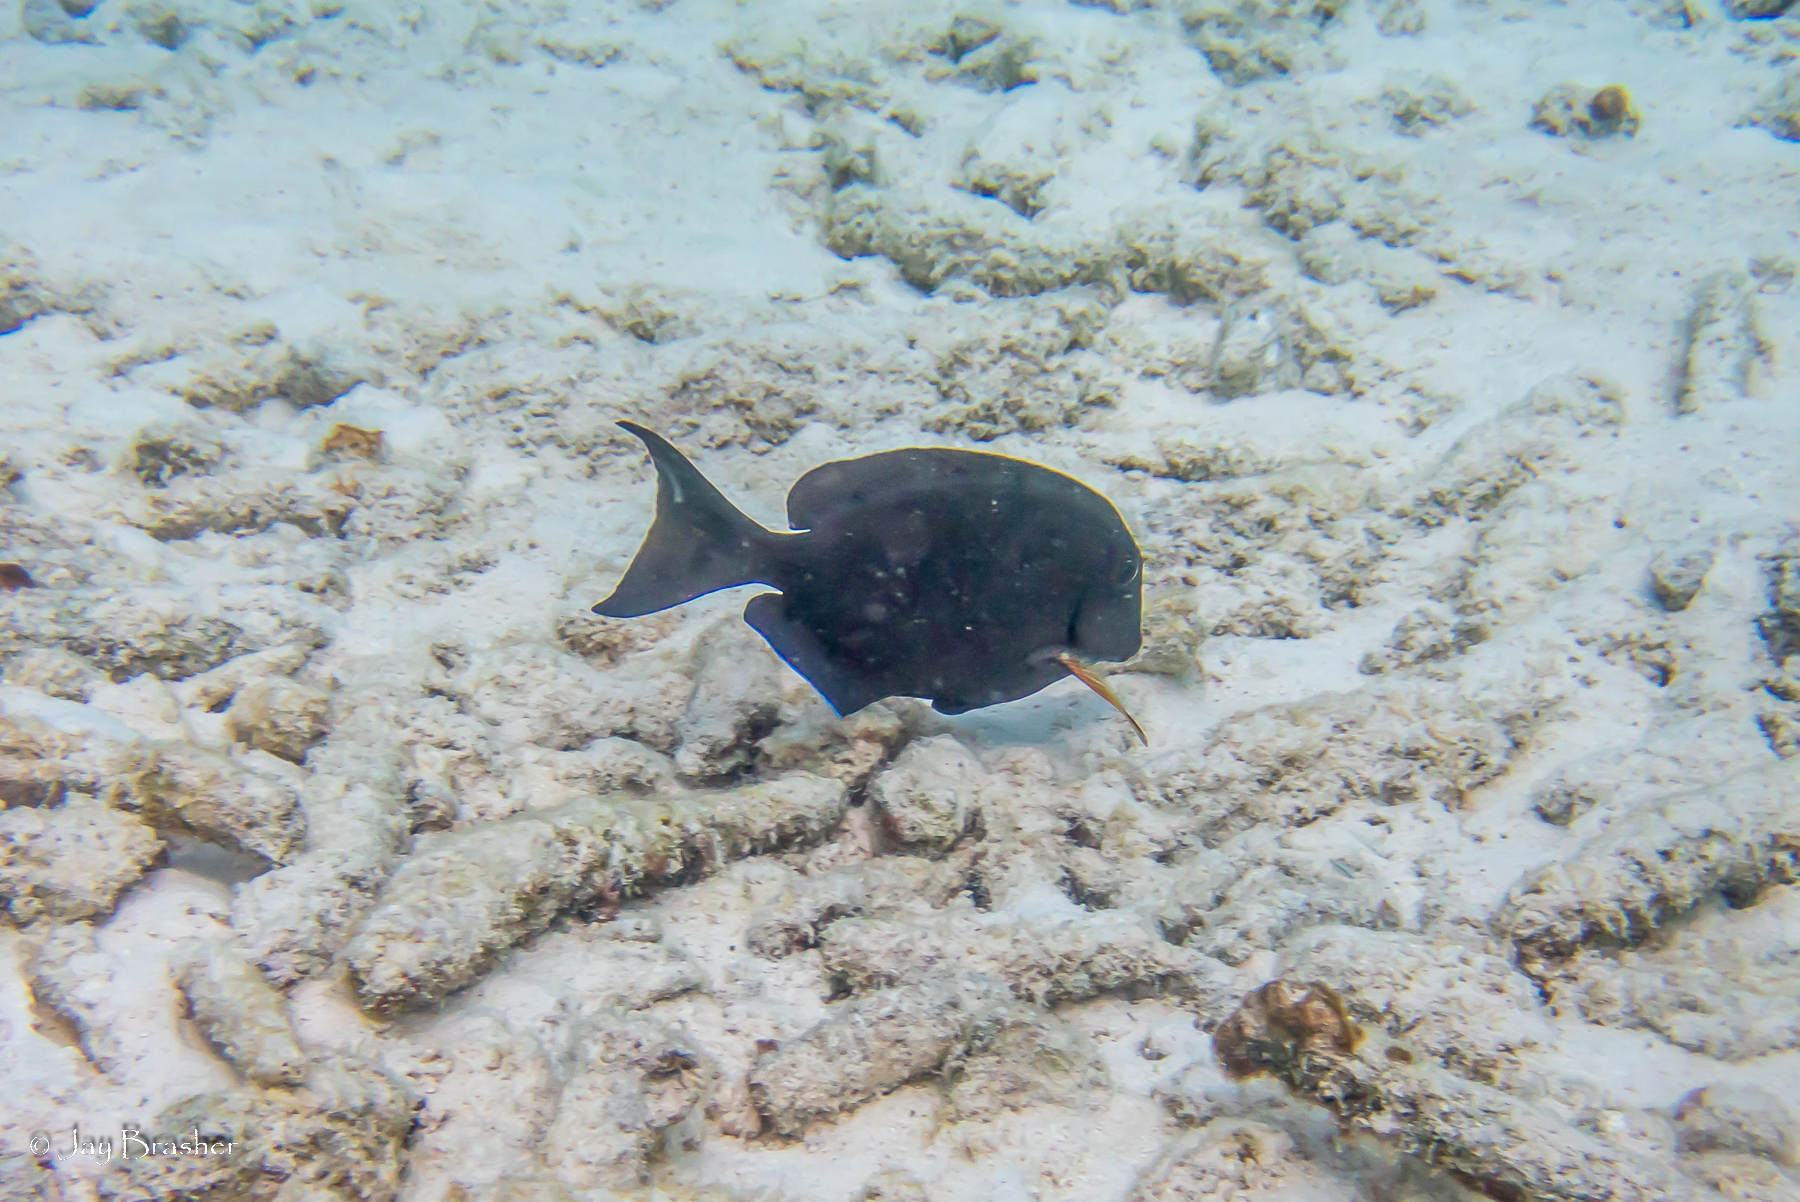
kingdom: Animalia
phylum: Chordata
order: Perciformes
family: Acanthuridae
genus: Acanthurus
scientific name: Acanthurus bahianus
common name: Ocean surgeon
